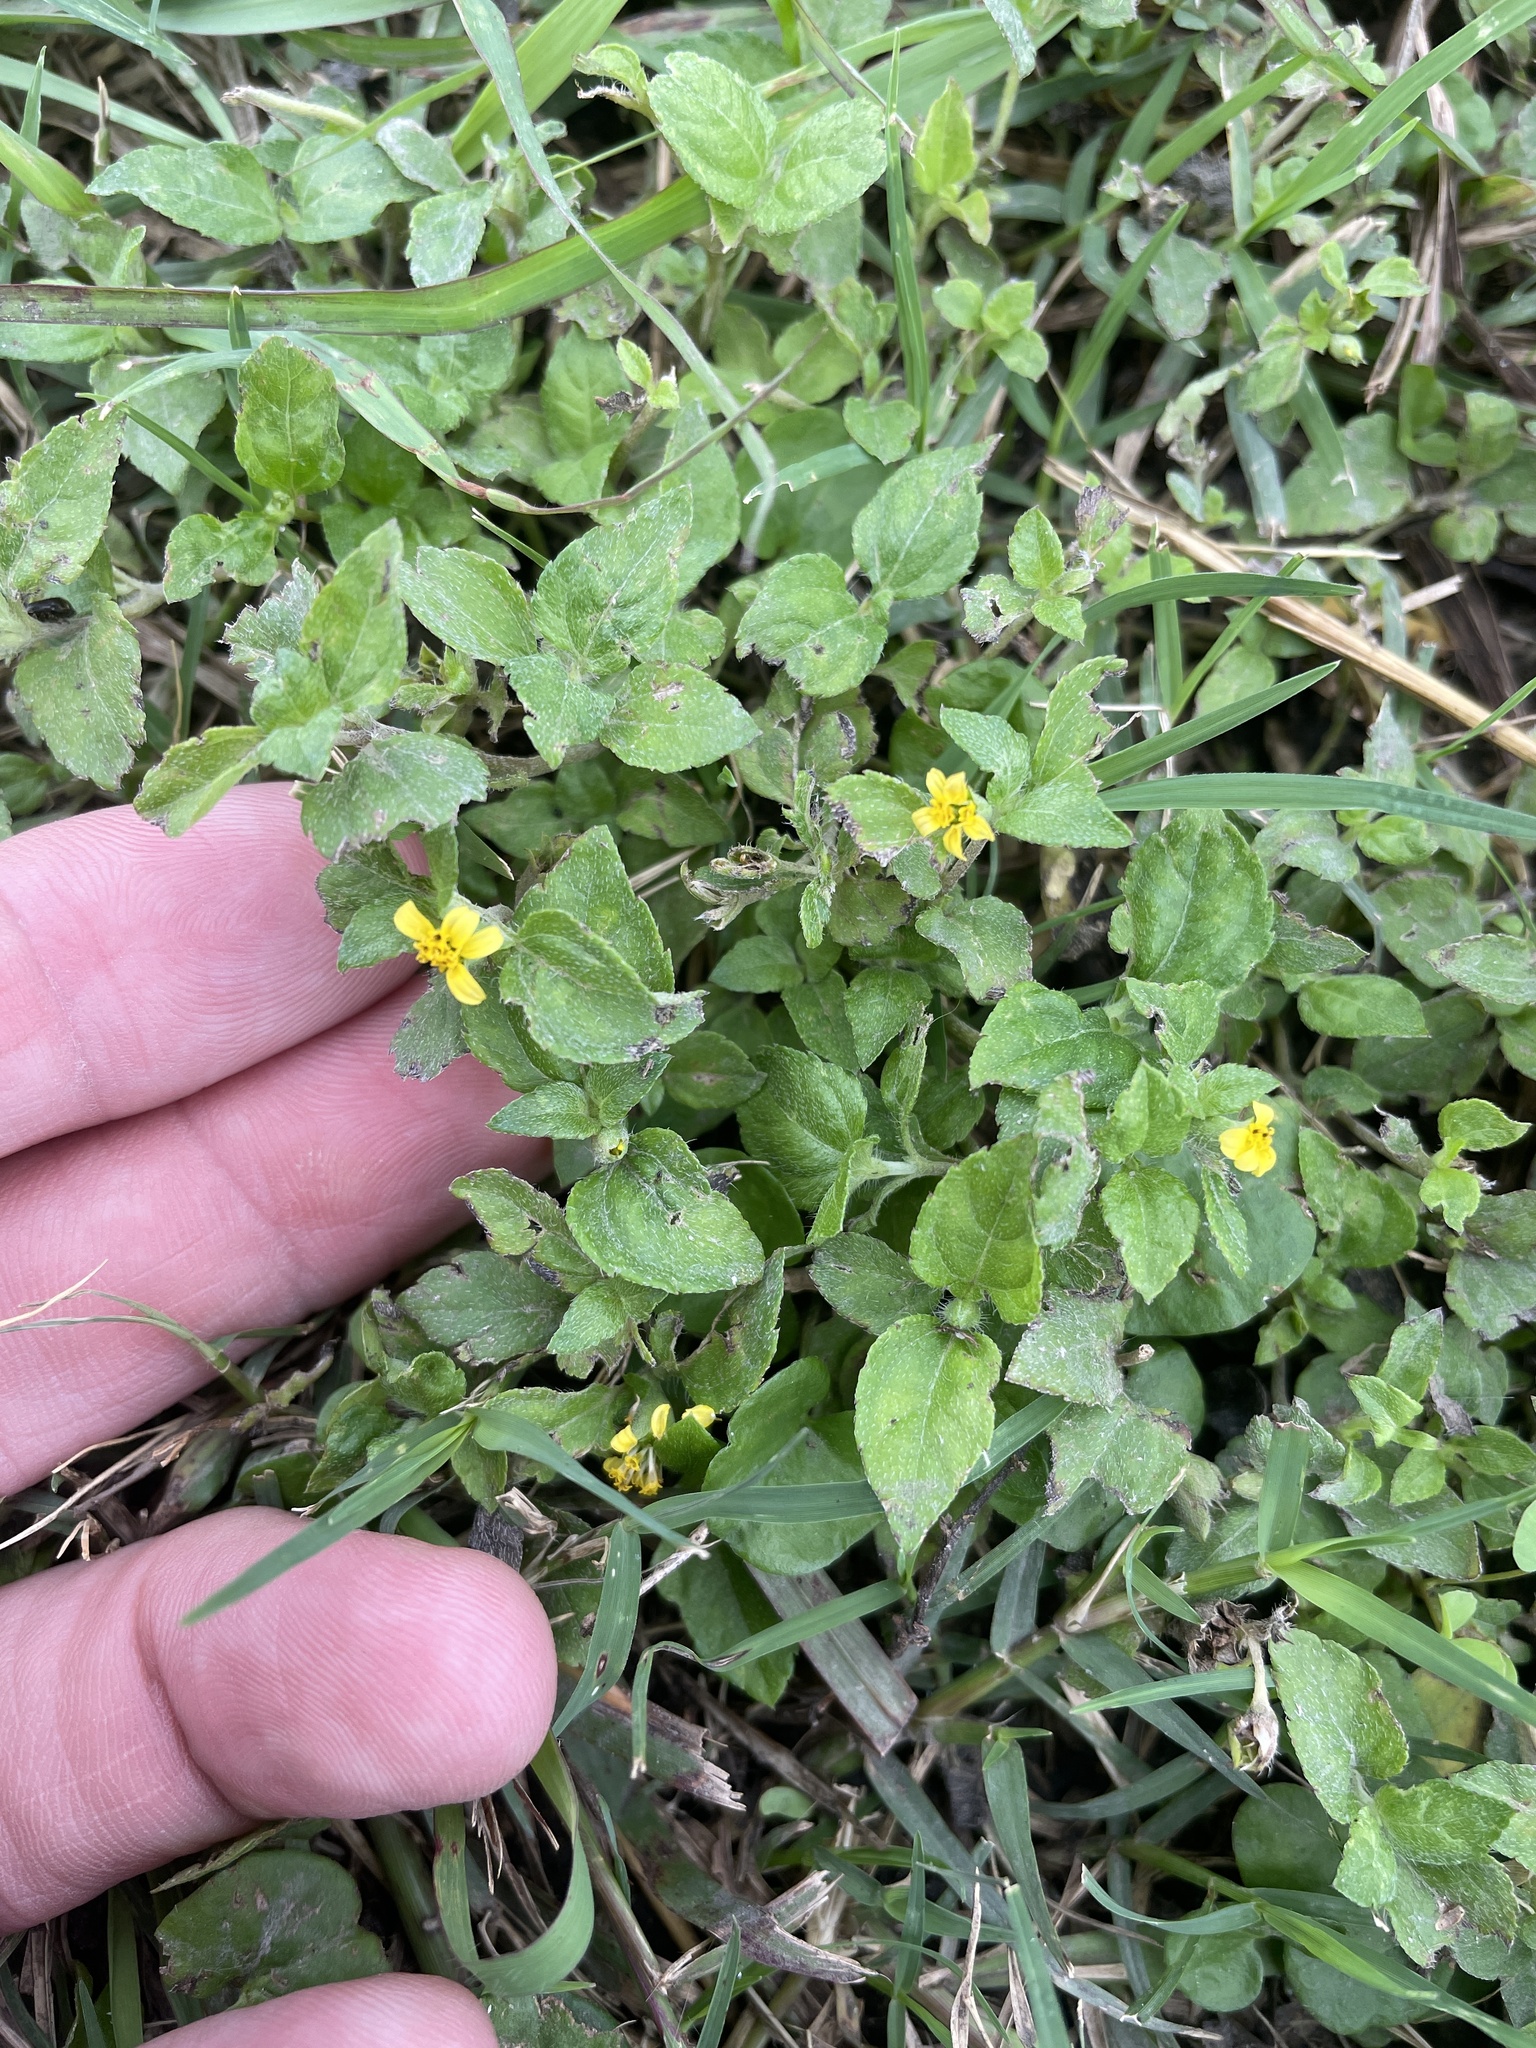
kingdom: Plantae
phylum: Tracheophyta
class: Magnoliopsida
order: Asterales
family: Asteraceae
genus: Calyptocarpus
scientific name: Calyptocarpus vialis
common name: Straggler daisy
